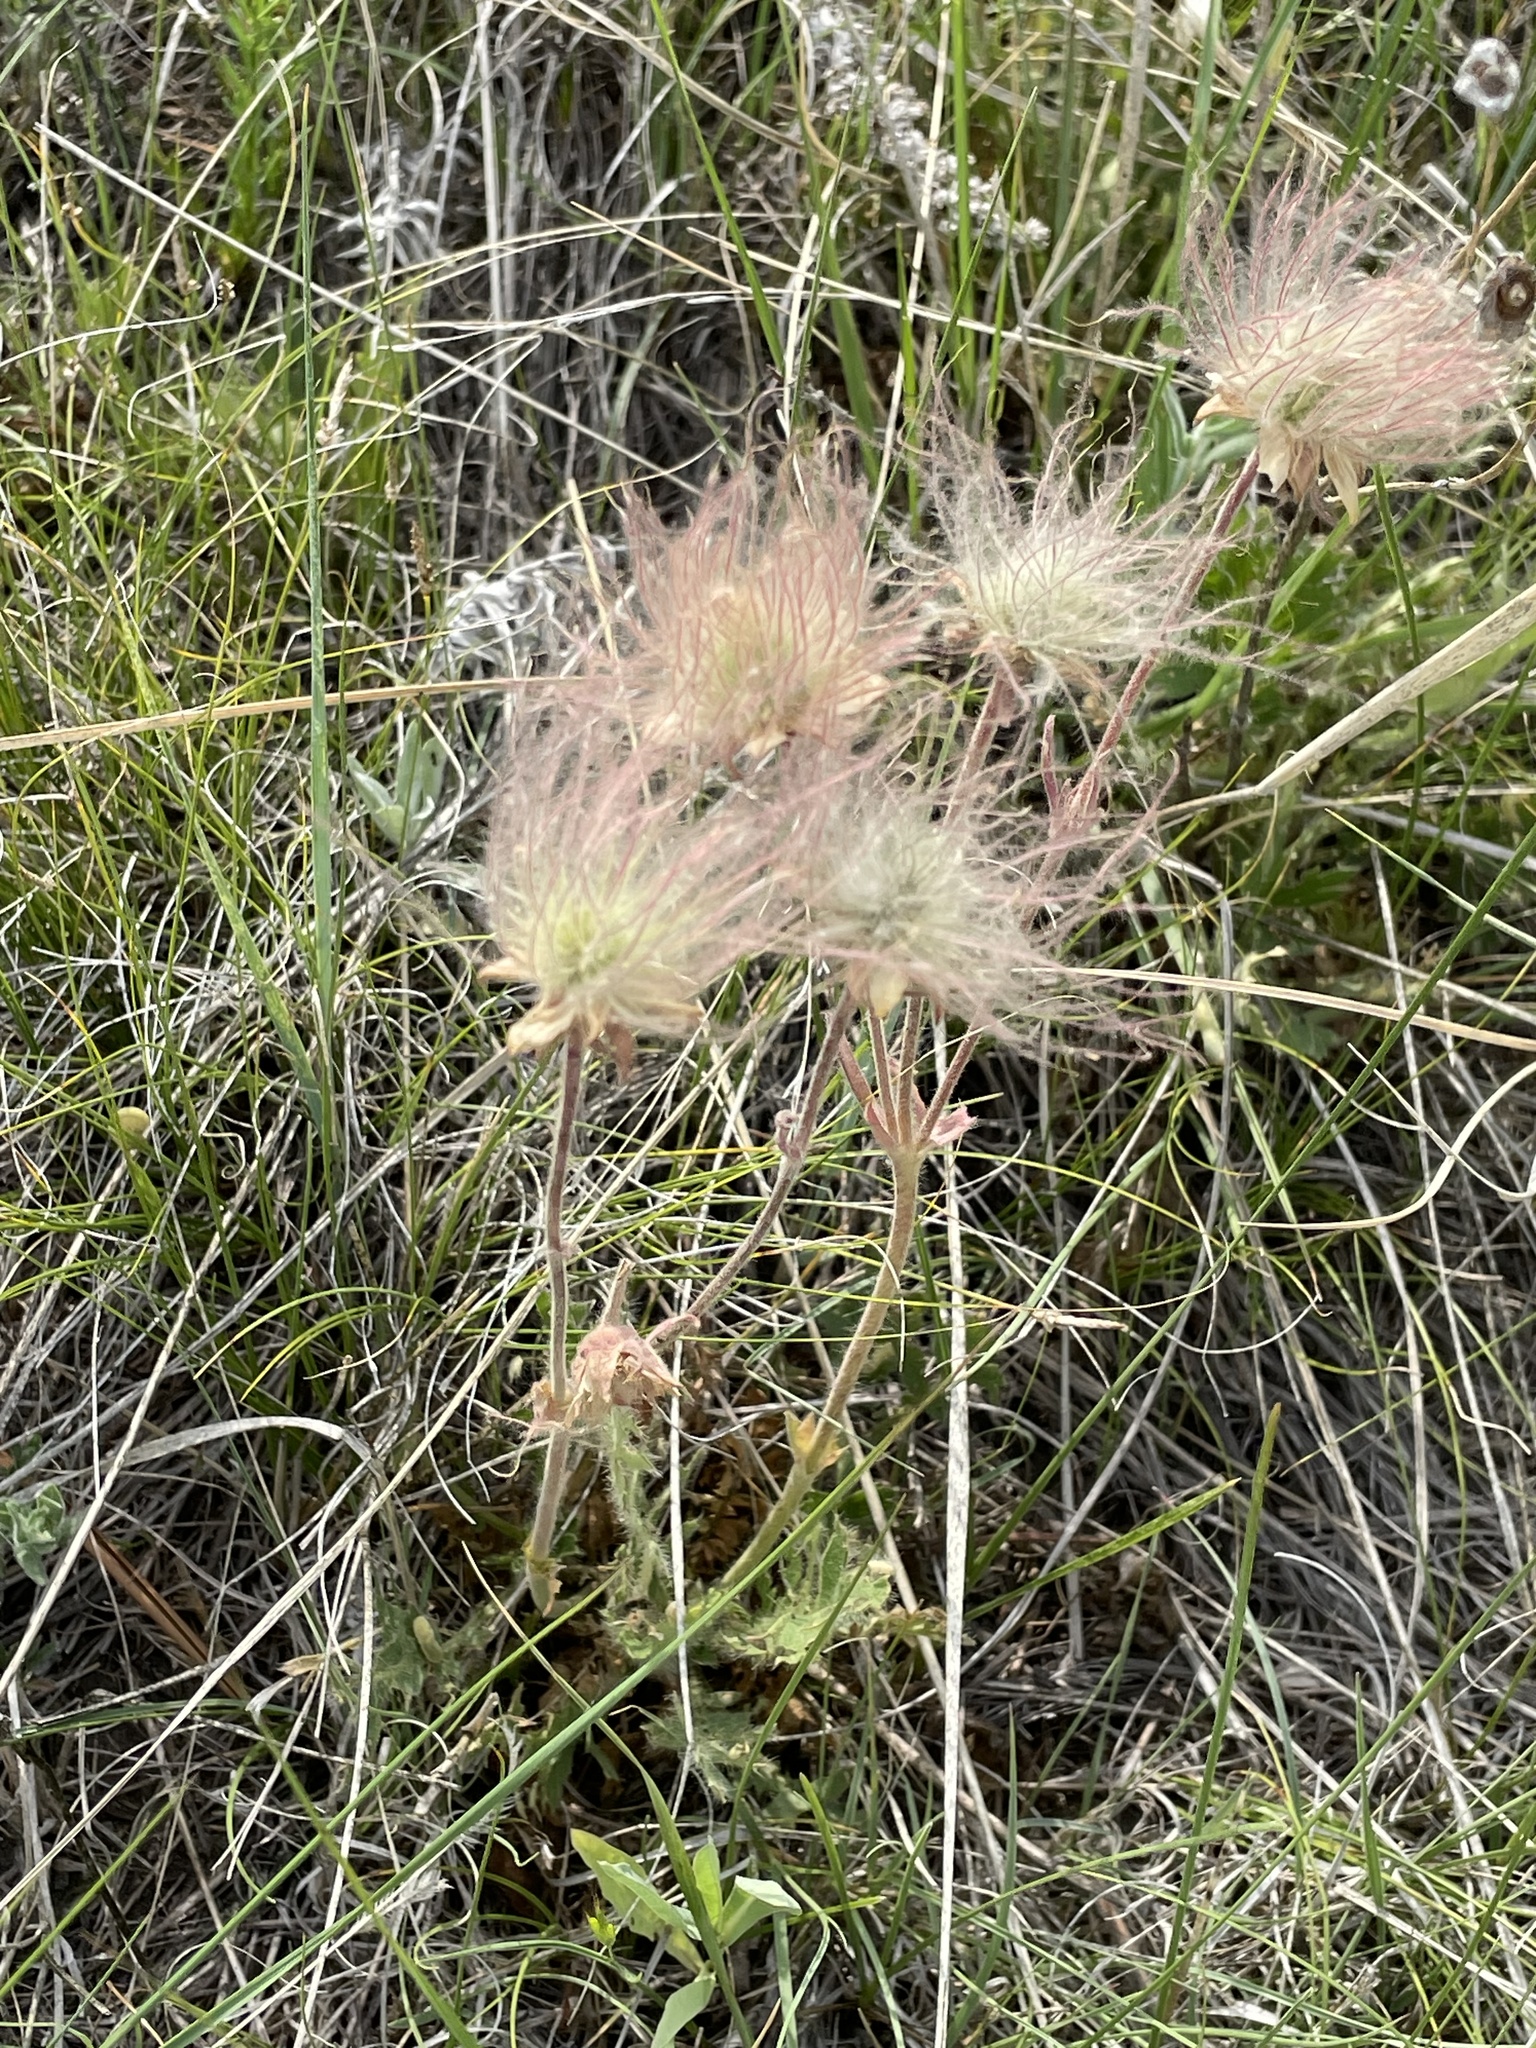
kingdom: Plantae
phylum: Tracheophyta
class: Magnoliopsida
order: Rosales
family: Rosaceae
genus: Geum
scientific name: Geum triflorum
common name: Old man's whiskers
